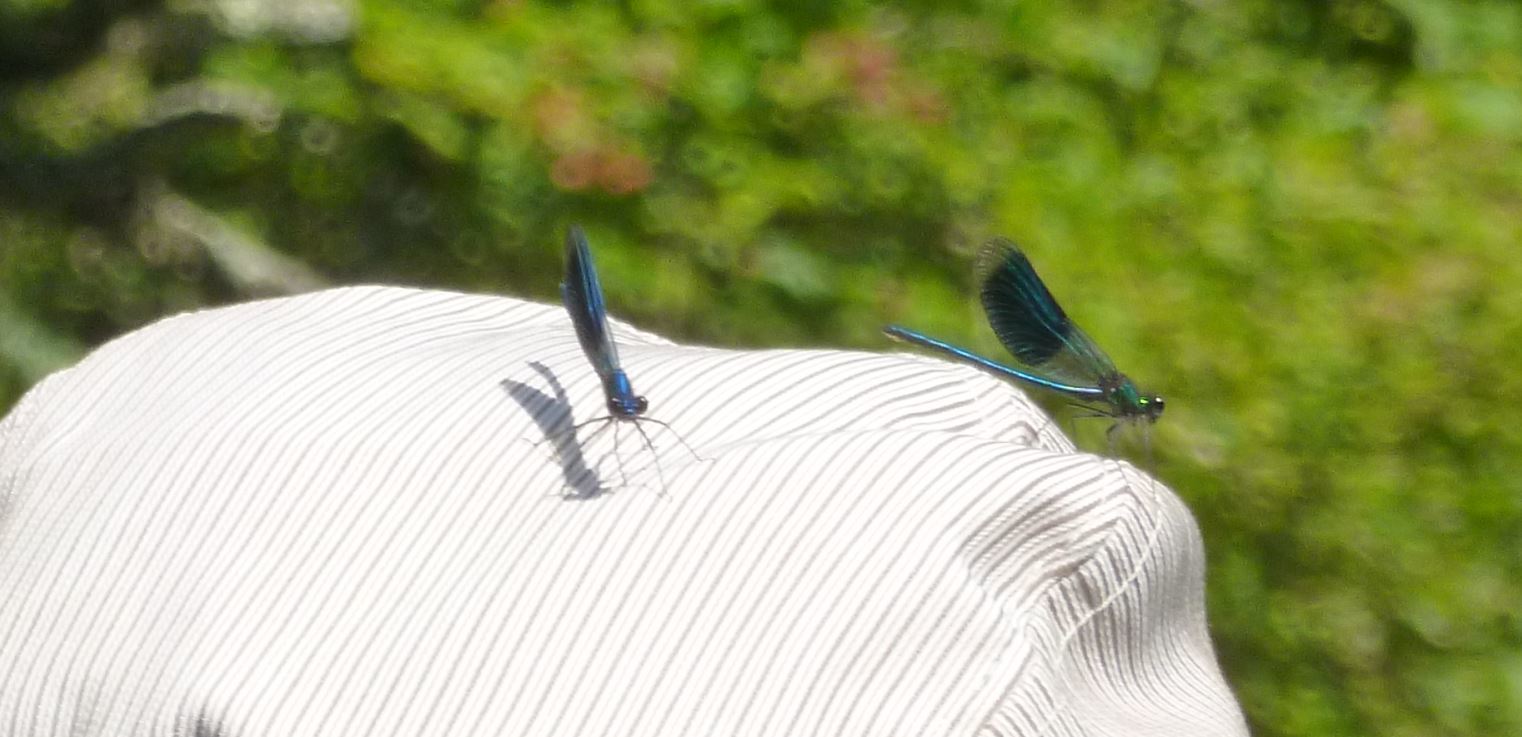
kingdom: Animalia
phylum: Arthropoda
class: Insecta
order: Odonata
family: Calopterygidae
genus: Calopteryx
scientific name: Calopteryx splendens
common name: Banded demoiselle
